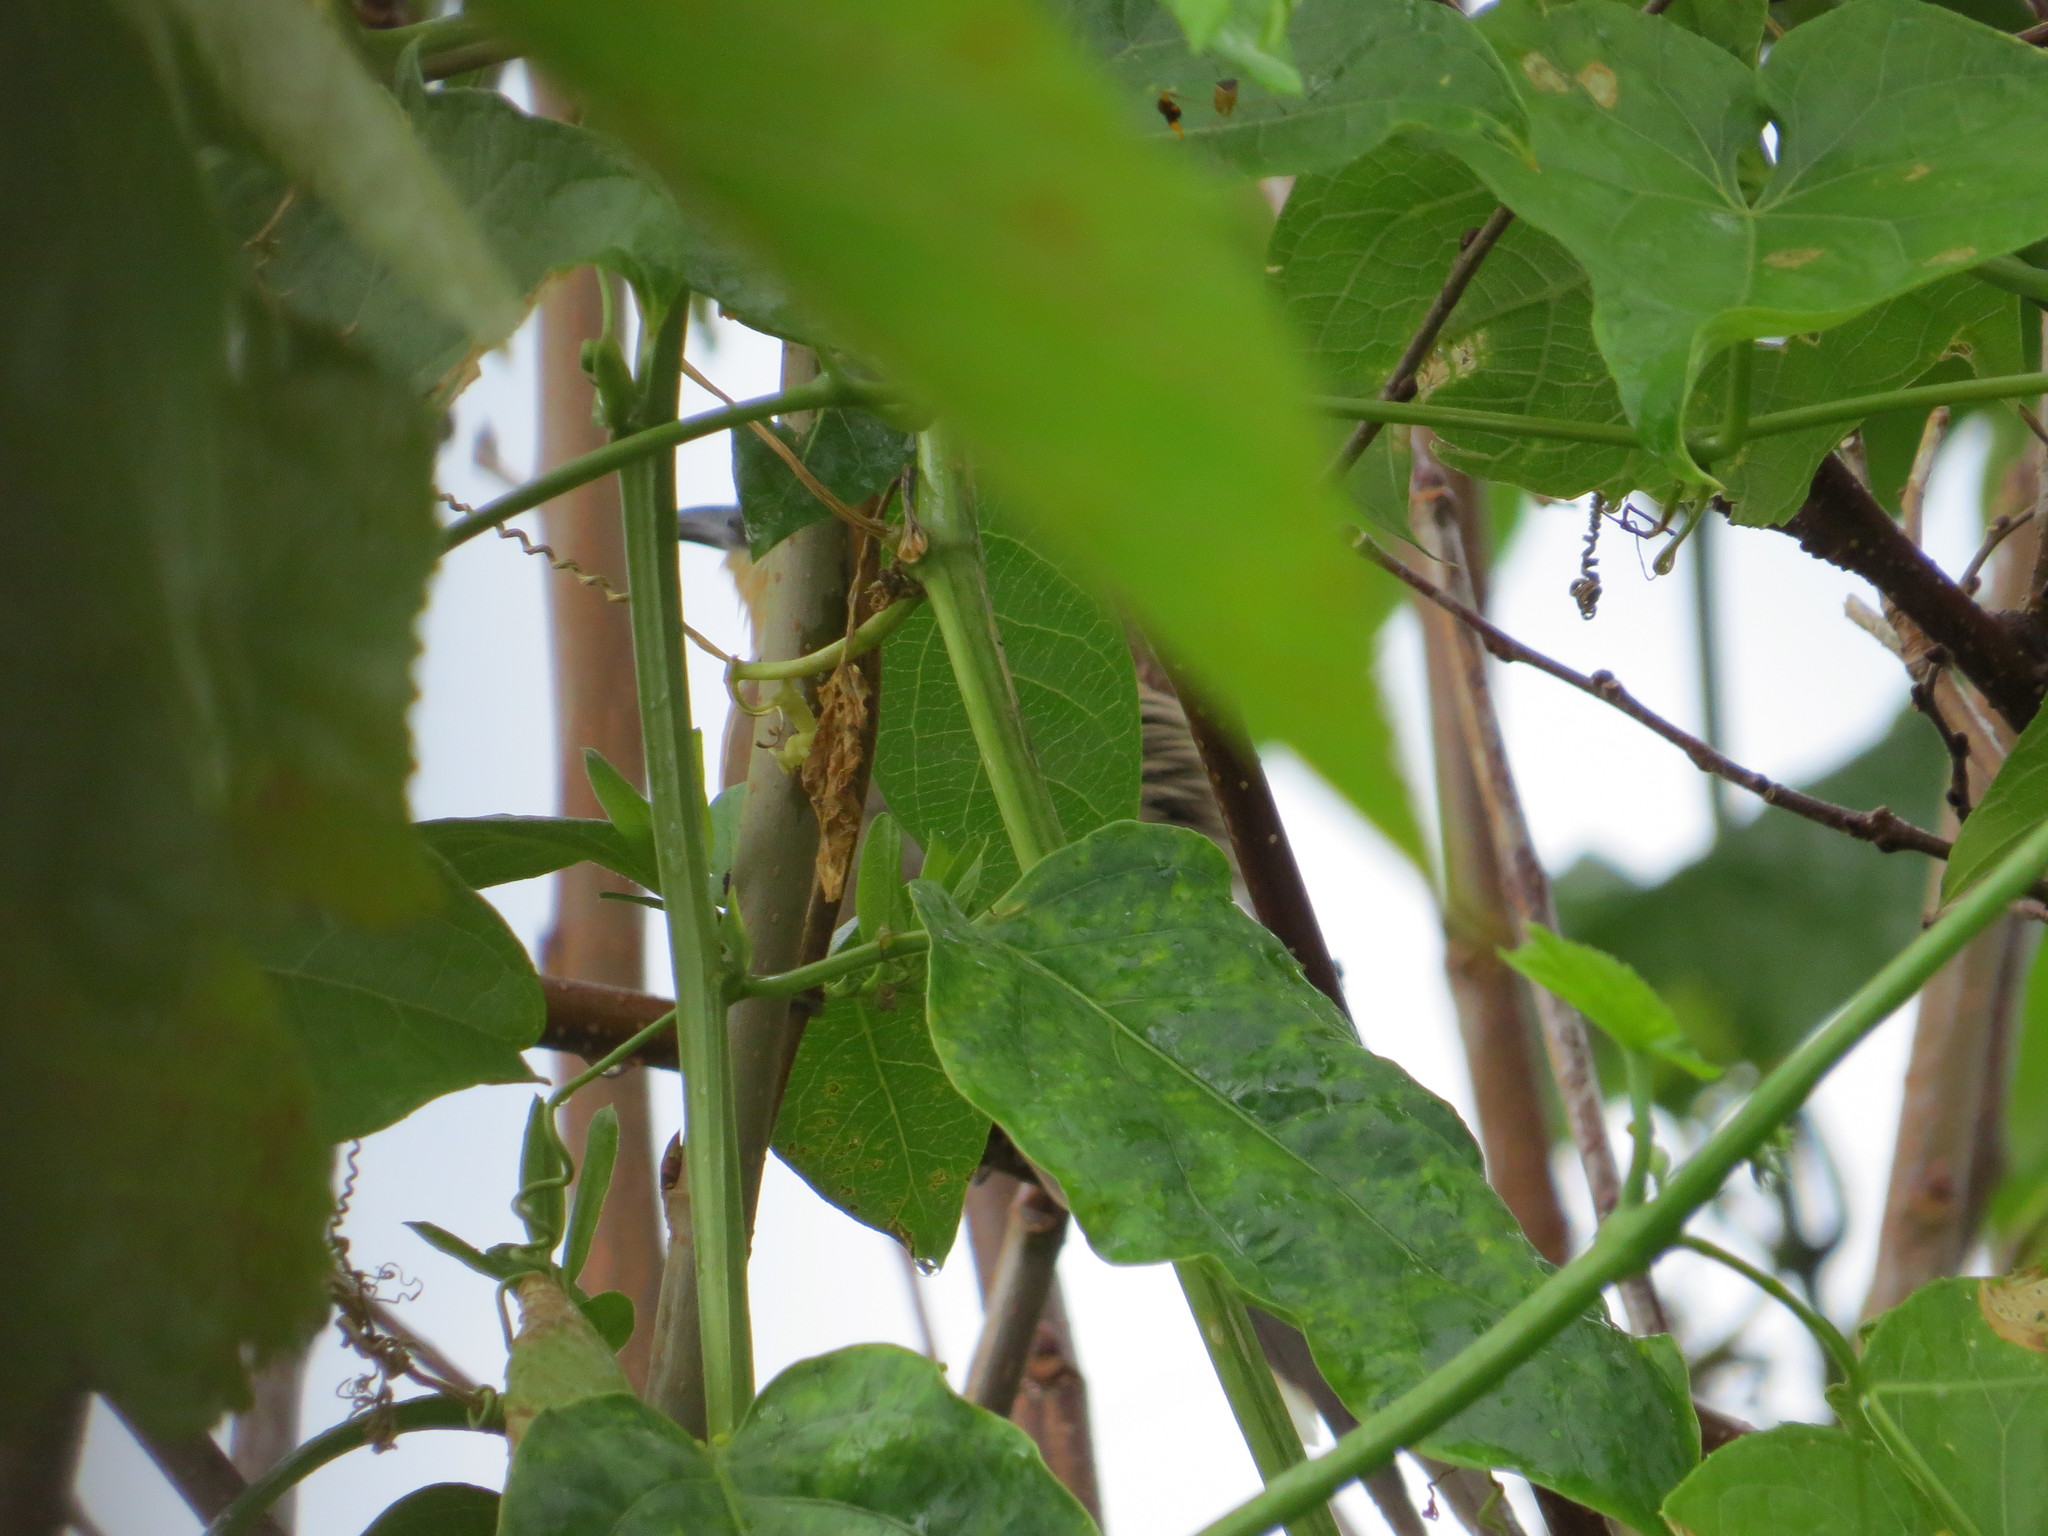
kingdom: Animalia
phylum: Chordata
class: Aves
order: Cuculiformes
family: Cuculidae
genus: Coccyzus
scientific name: Coccyzus melacoryphus
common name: Dark-billed cuckoo
